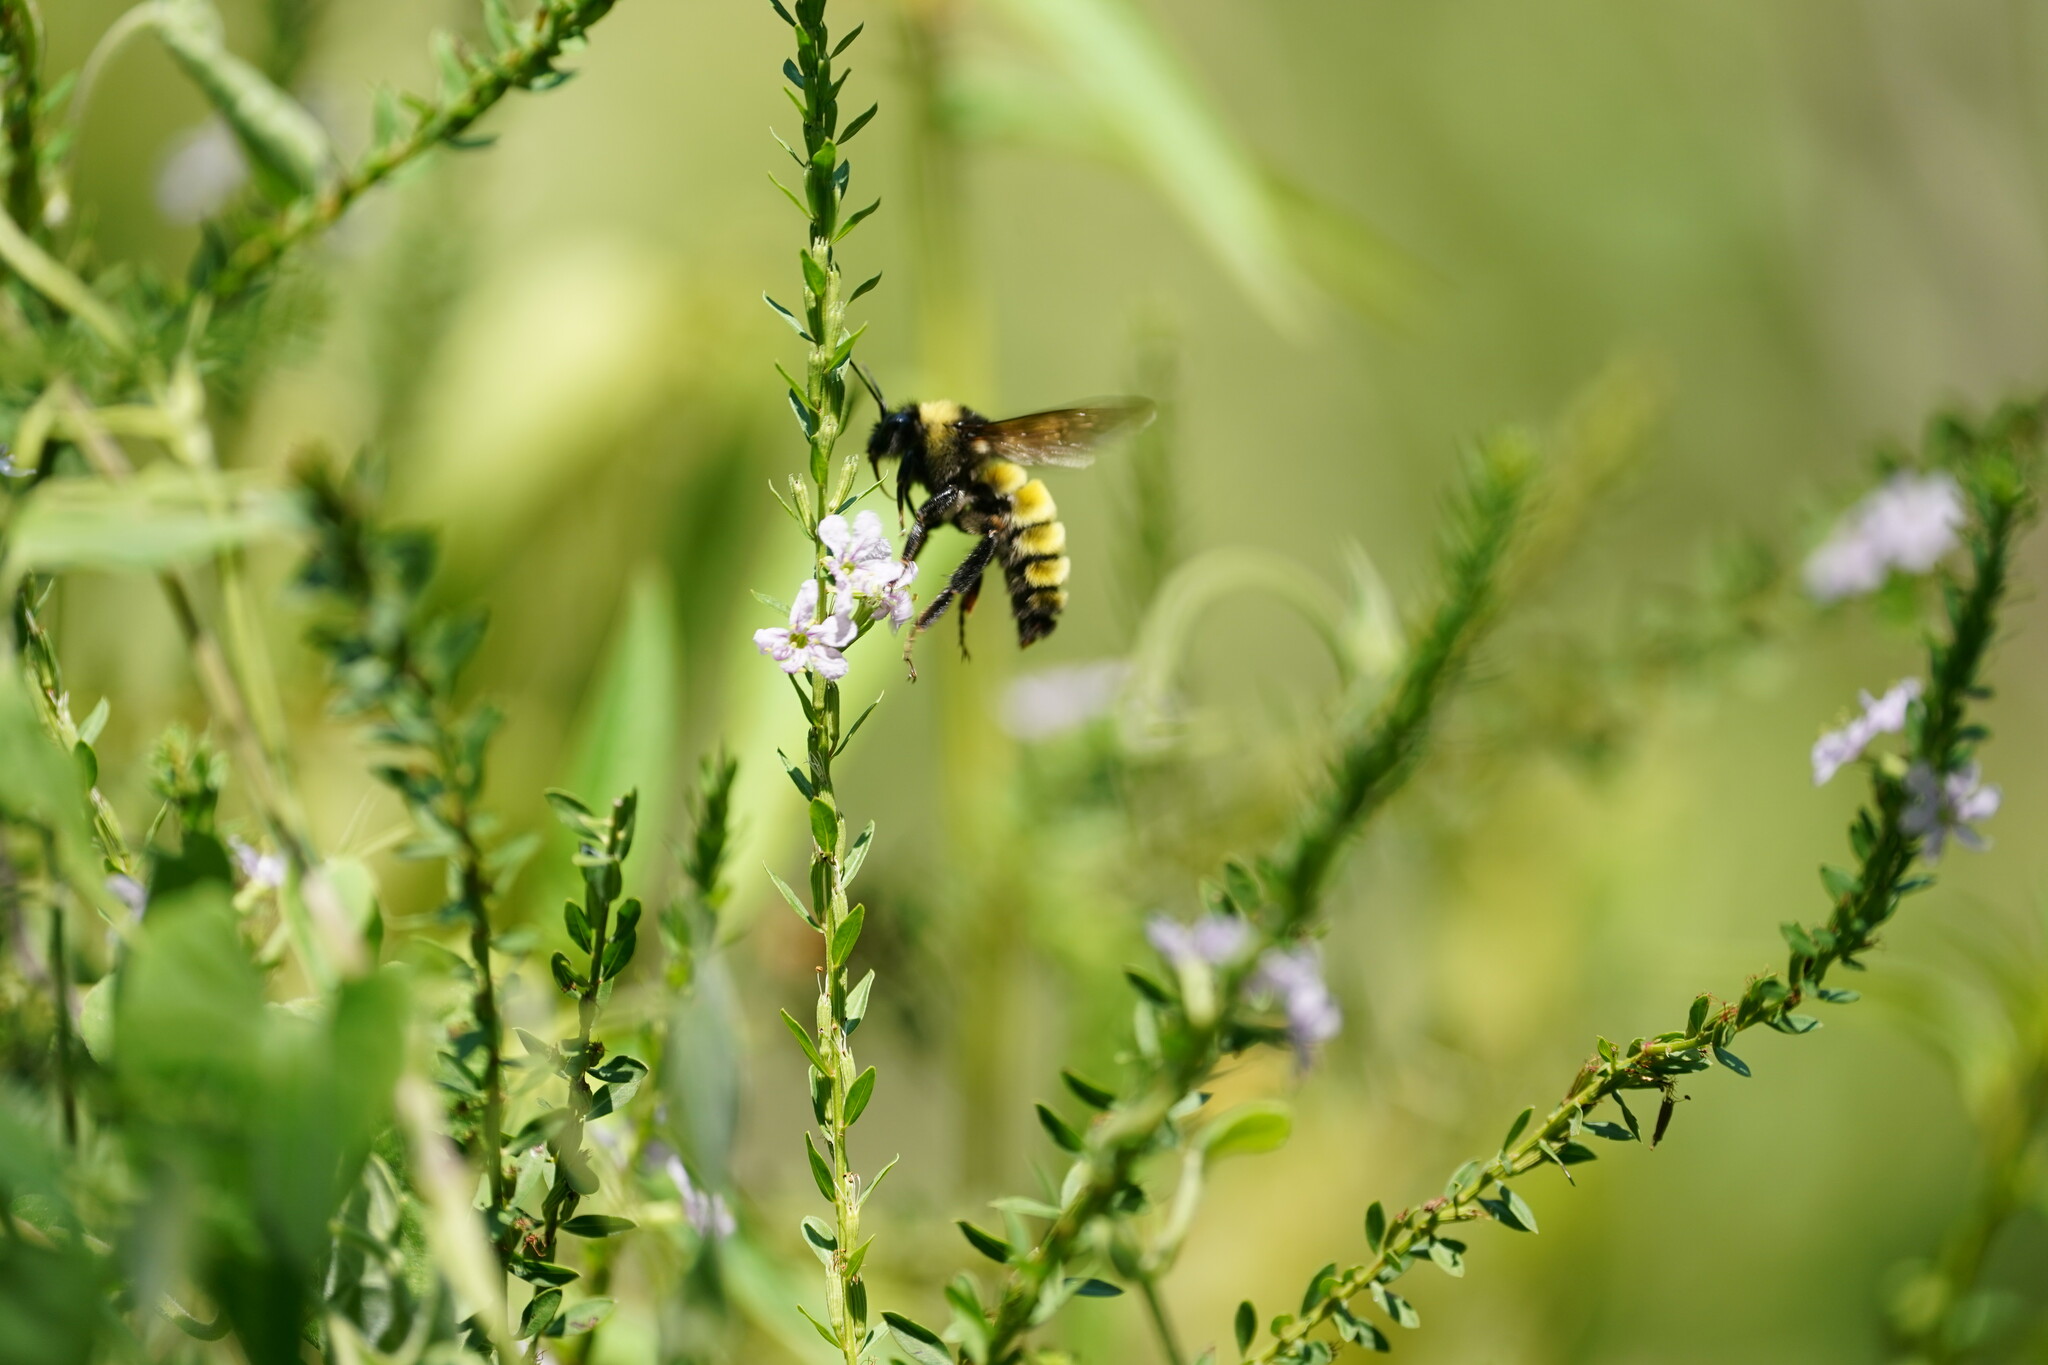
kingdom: Animalia
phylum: Arthropoda
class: Insecta
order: Hymenoptera
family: Apidae
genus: Bombus
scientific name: Bombus pensylvanicus
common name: Bumble bee
